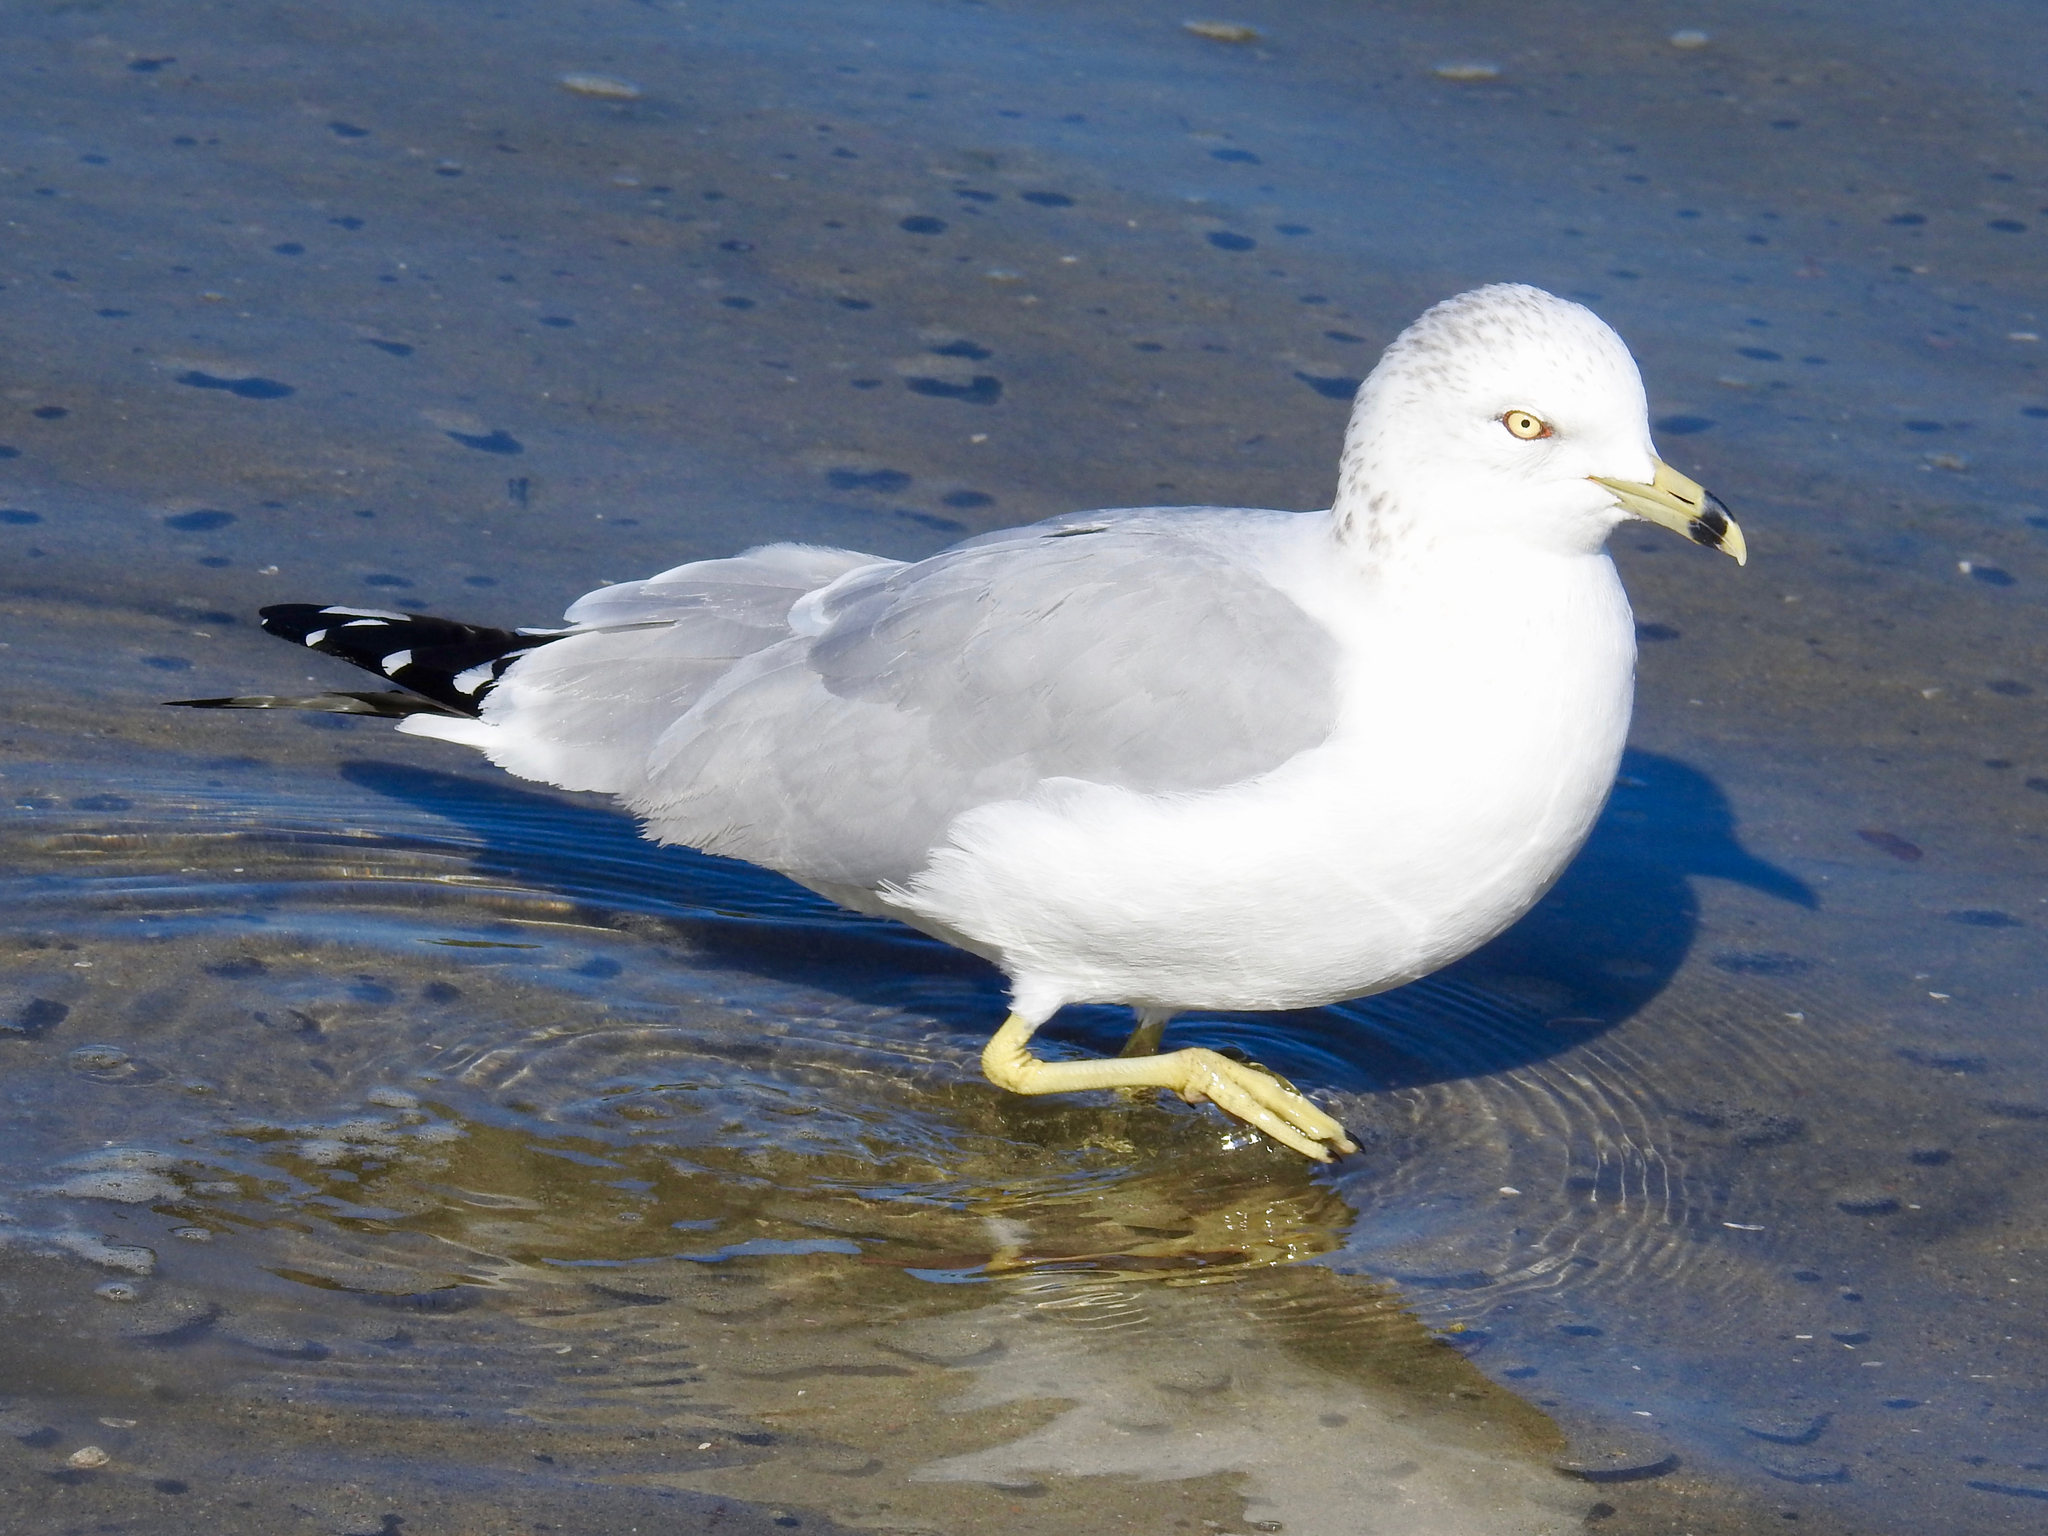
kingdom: Animalia
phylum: Chordata
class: Aves
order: Charadriiformes
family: Laridae
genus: Larus
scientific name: Larus delawarensis
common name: Ring-billed gull
